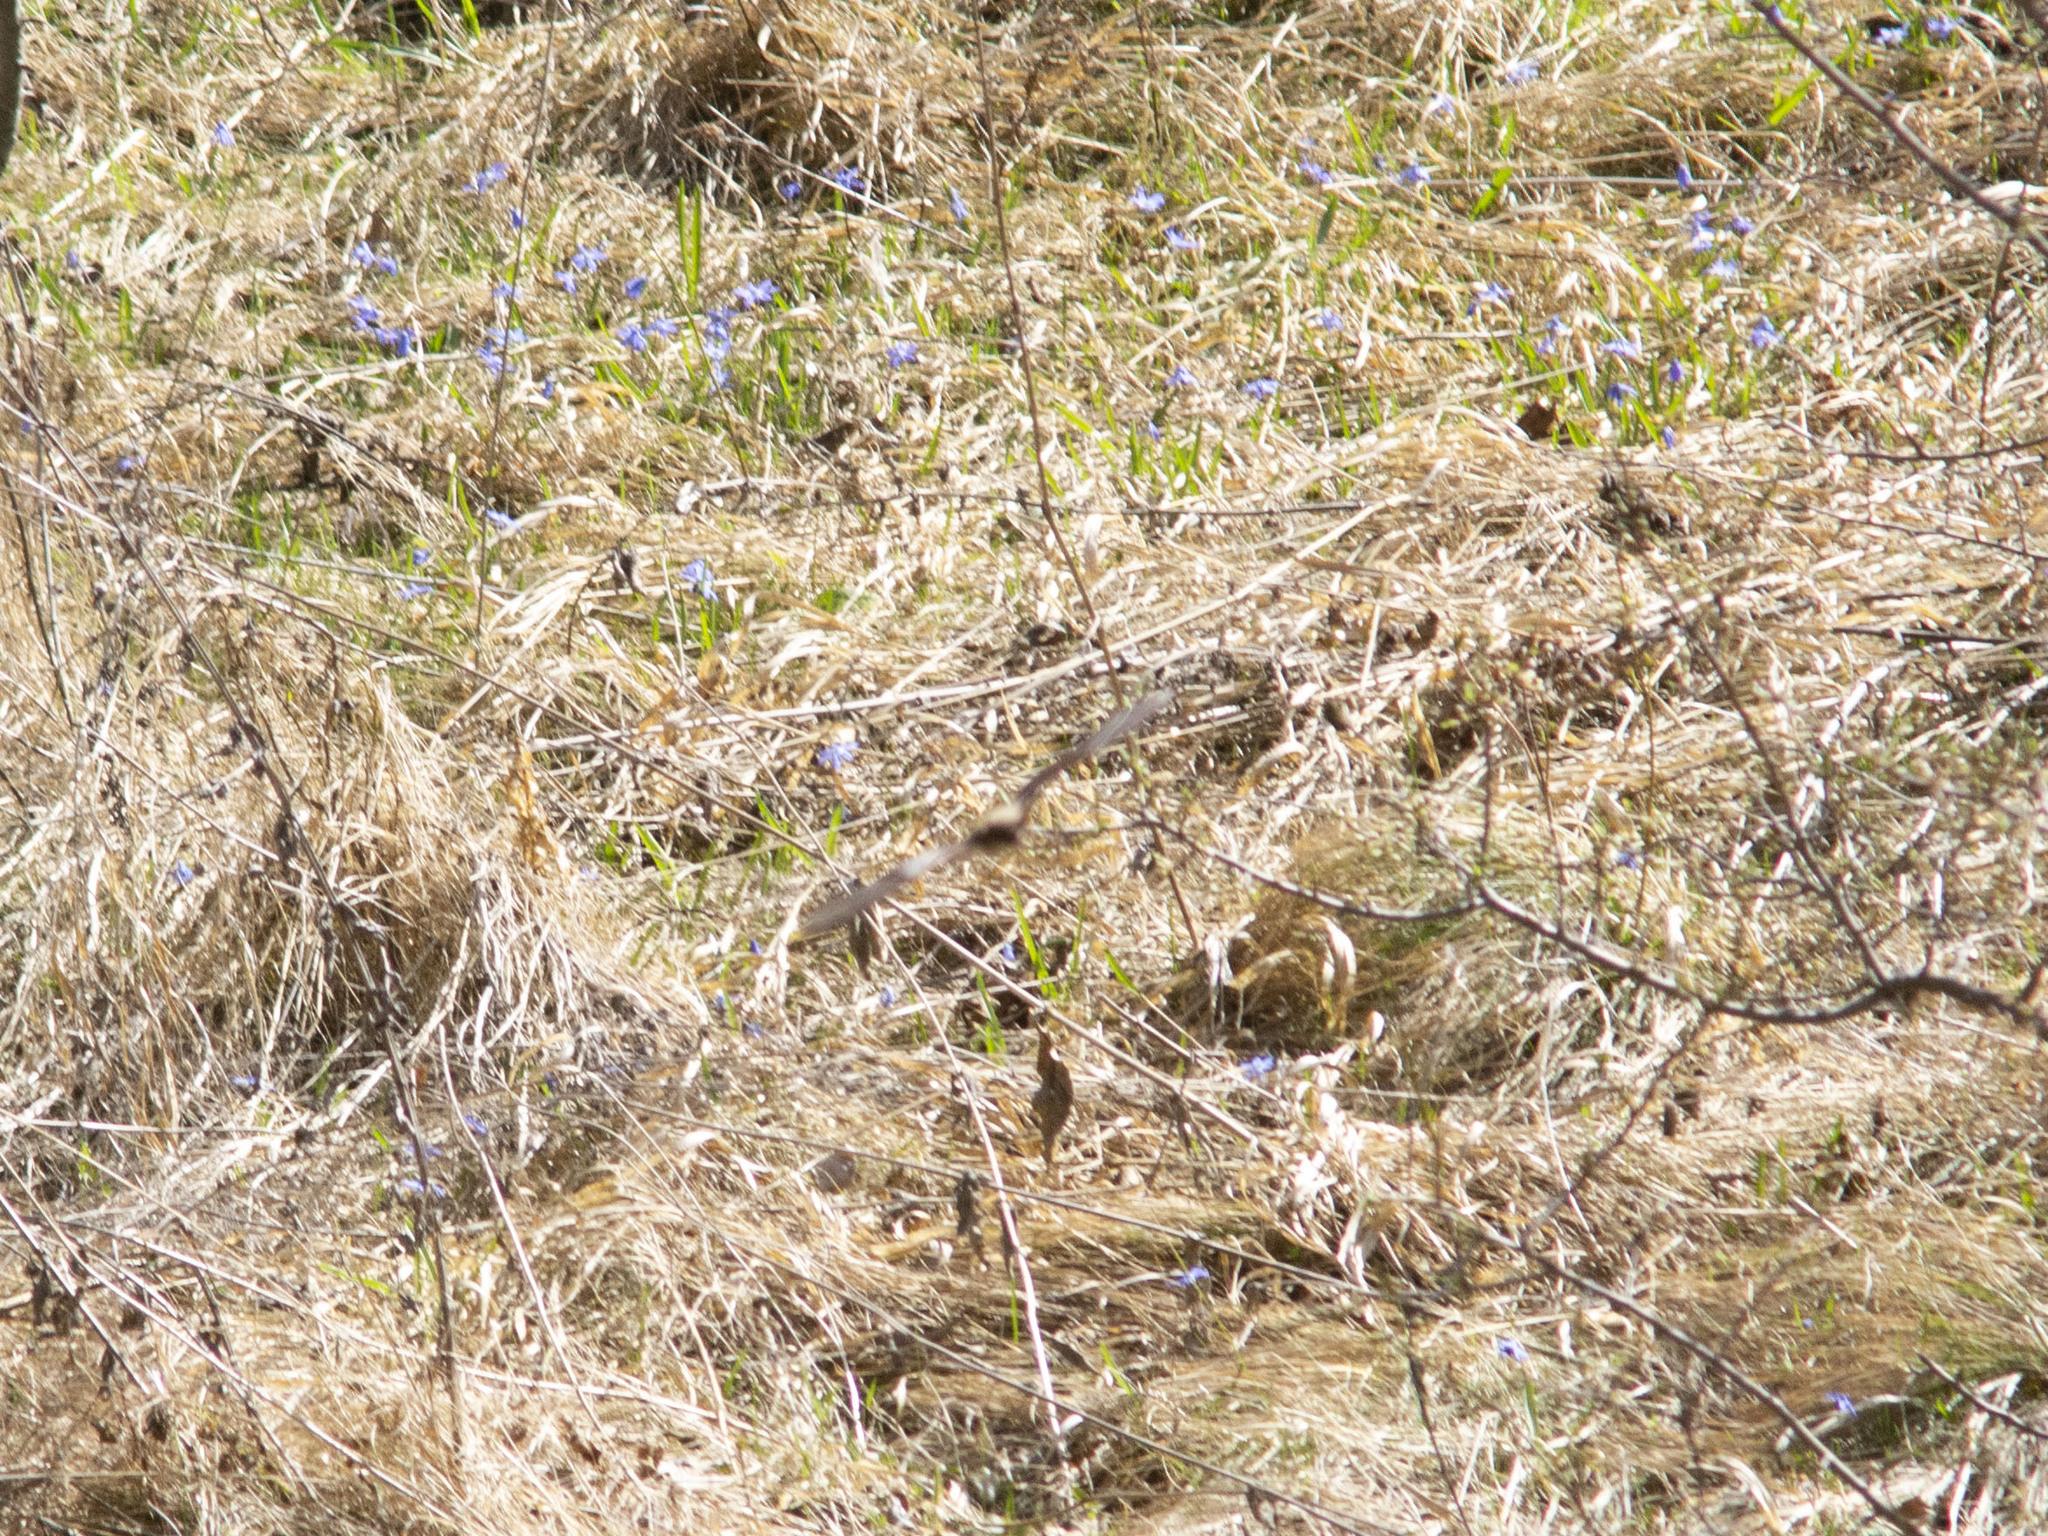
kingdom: Animalia
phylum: Chordata
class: Mammalia
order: Chiroptera
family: Vespertilionidae
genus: Myotis
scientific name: Myotis tschuliensis
